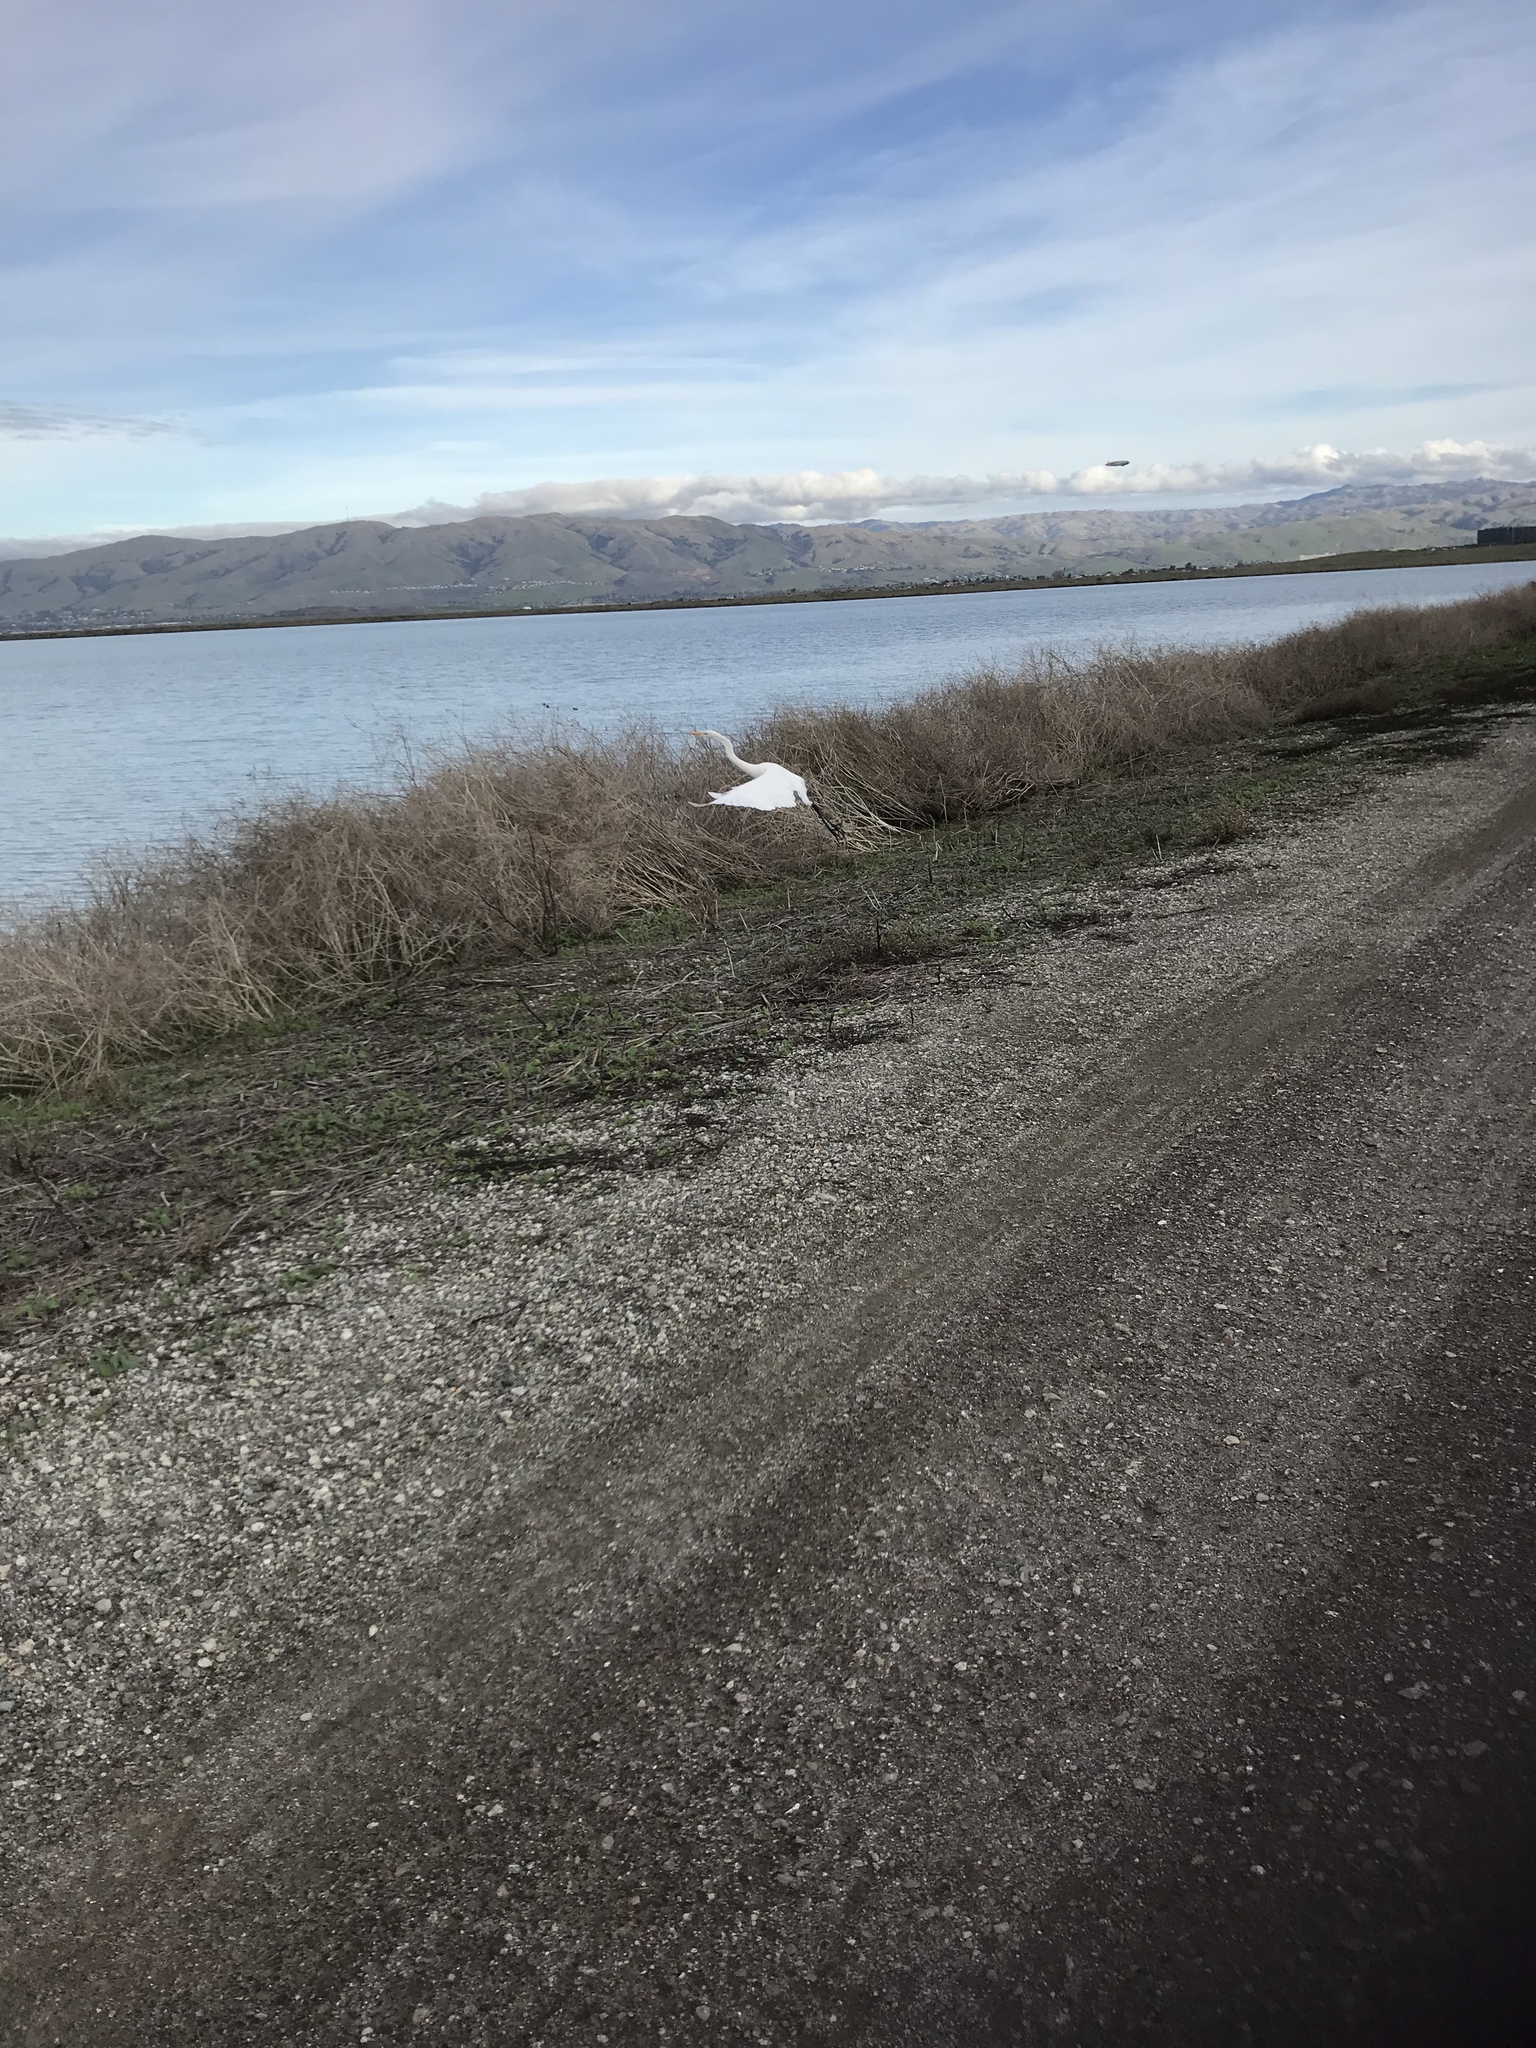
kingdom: Animalia
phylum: Chordata
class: Aves
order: Pelecaniformes
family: Ardeidae
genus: Ardea
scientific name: Ardea alba
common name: Great egret
